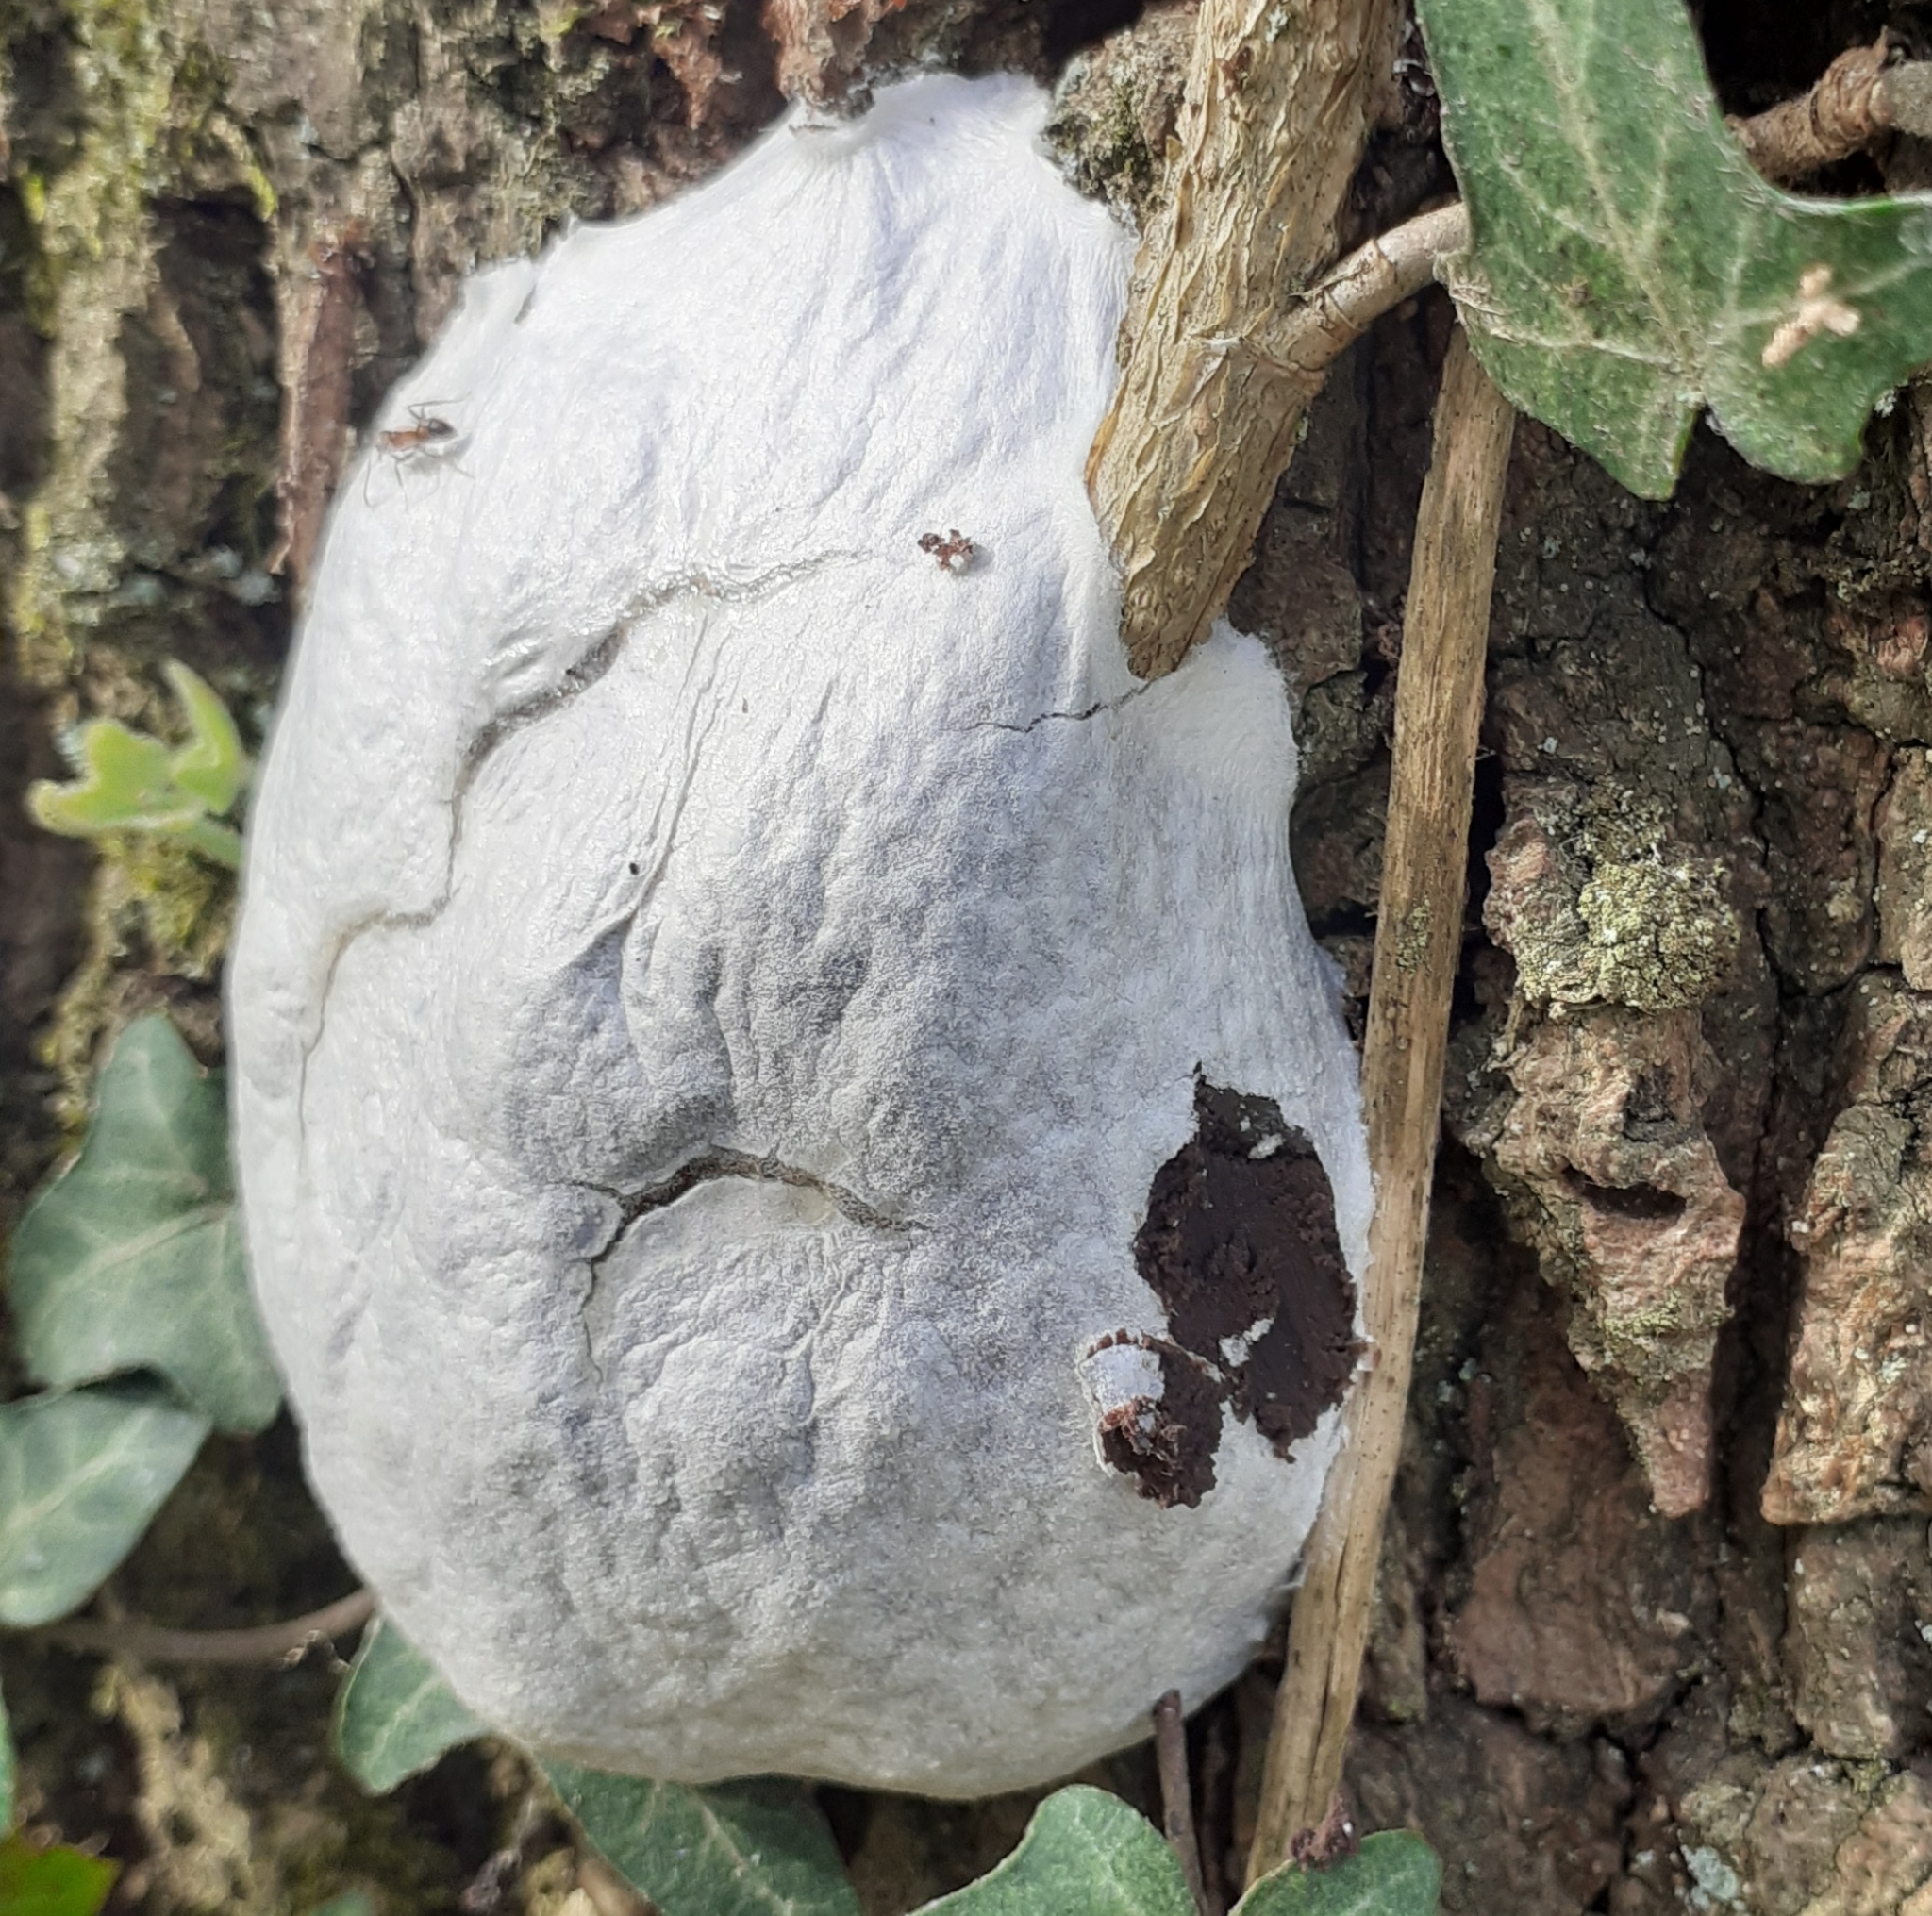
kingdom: Protozoa
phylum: Mycetozoa
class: Myxomycetes
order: Cribrariales
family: Tubiferaceae
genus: Reticularia
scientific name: Reticularia lycoperdon
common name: False puffball
